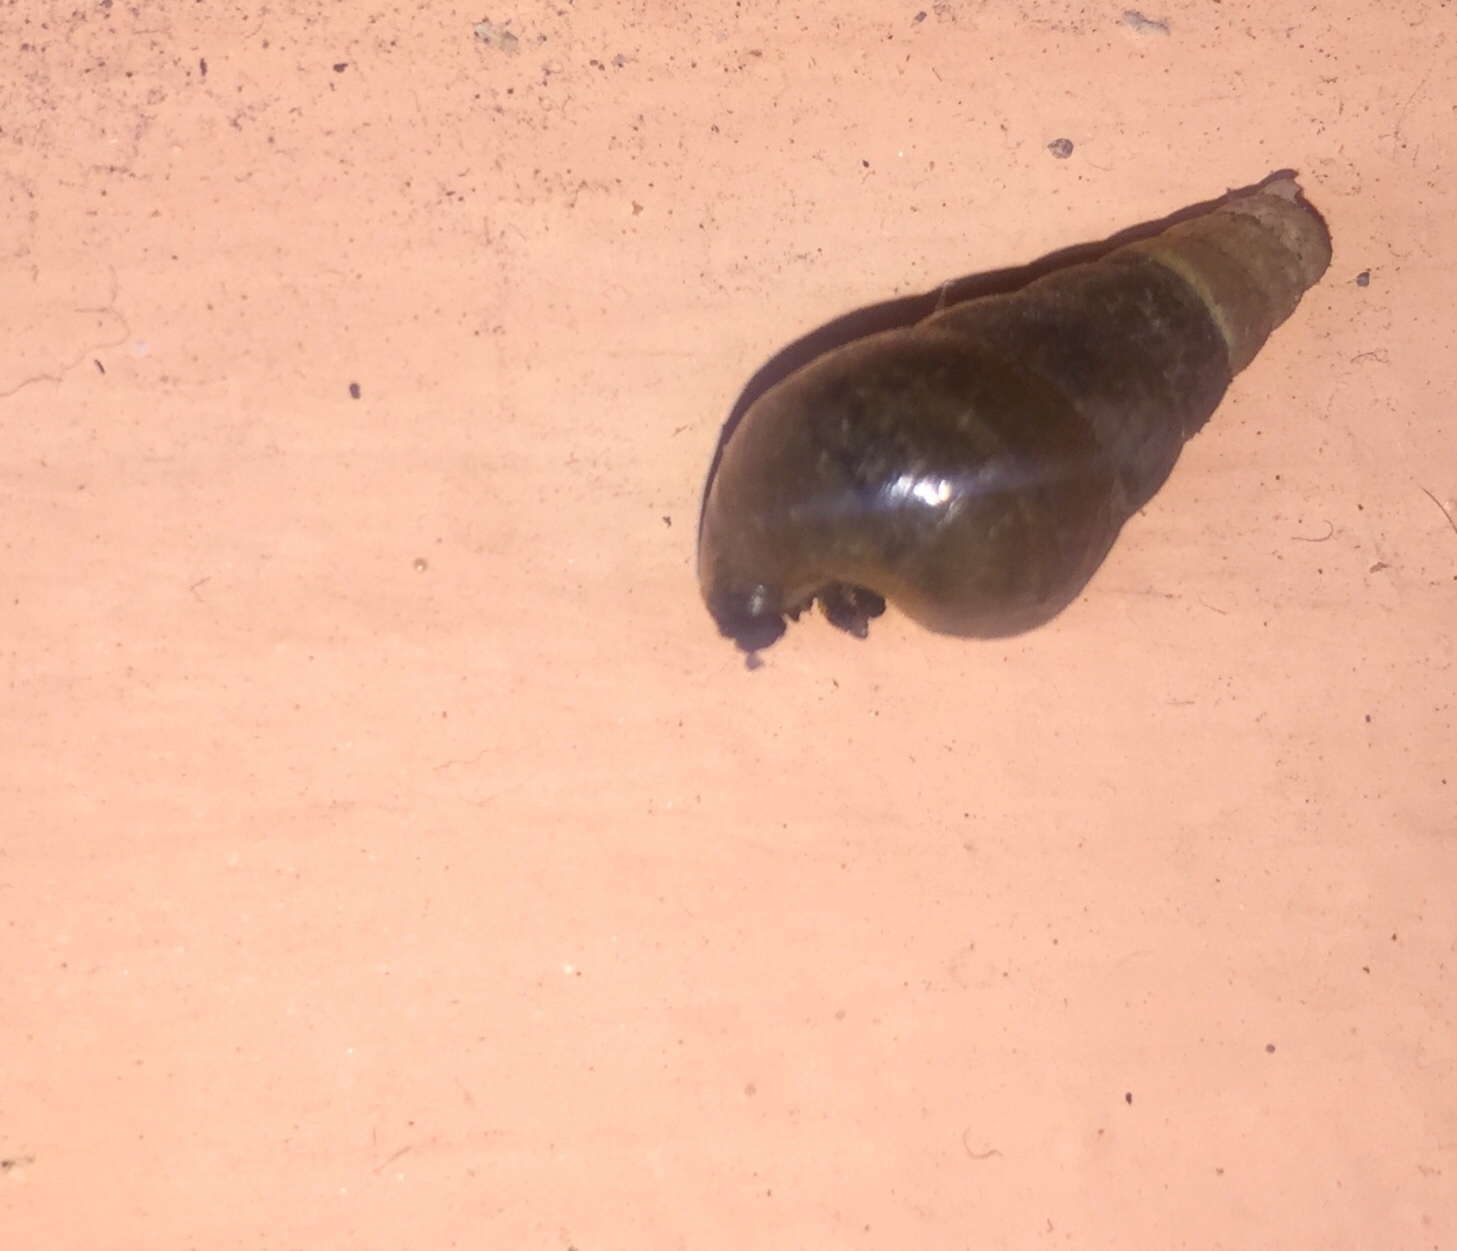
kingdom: Animalia
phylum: Mollusca
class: Gastropoda
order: Stylommatophora
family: Achatinidae
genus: Rumina
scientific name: Rumina decollata
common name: Decollate snail
